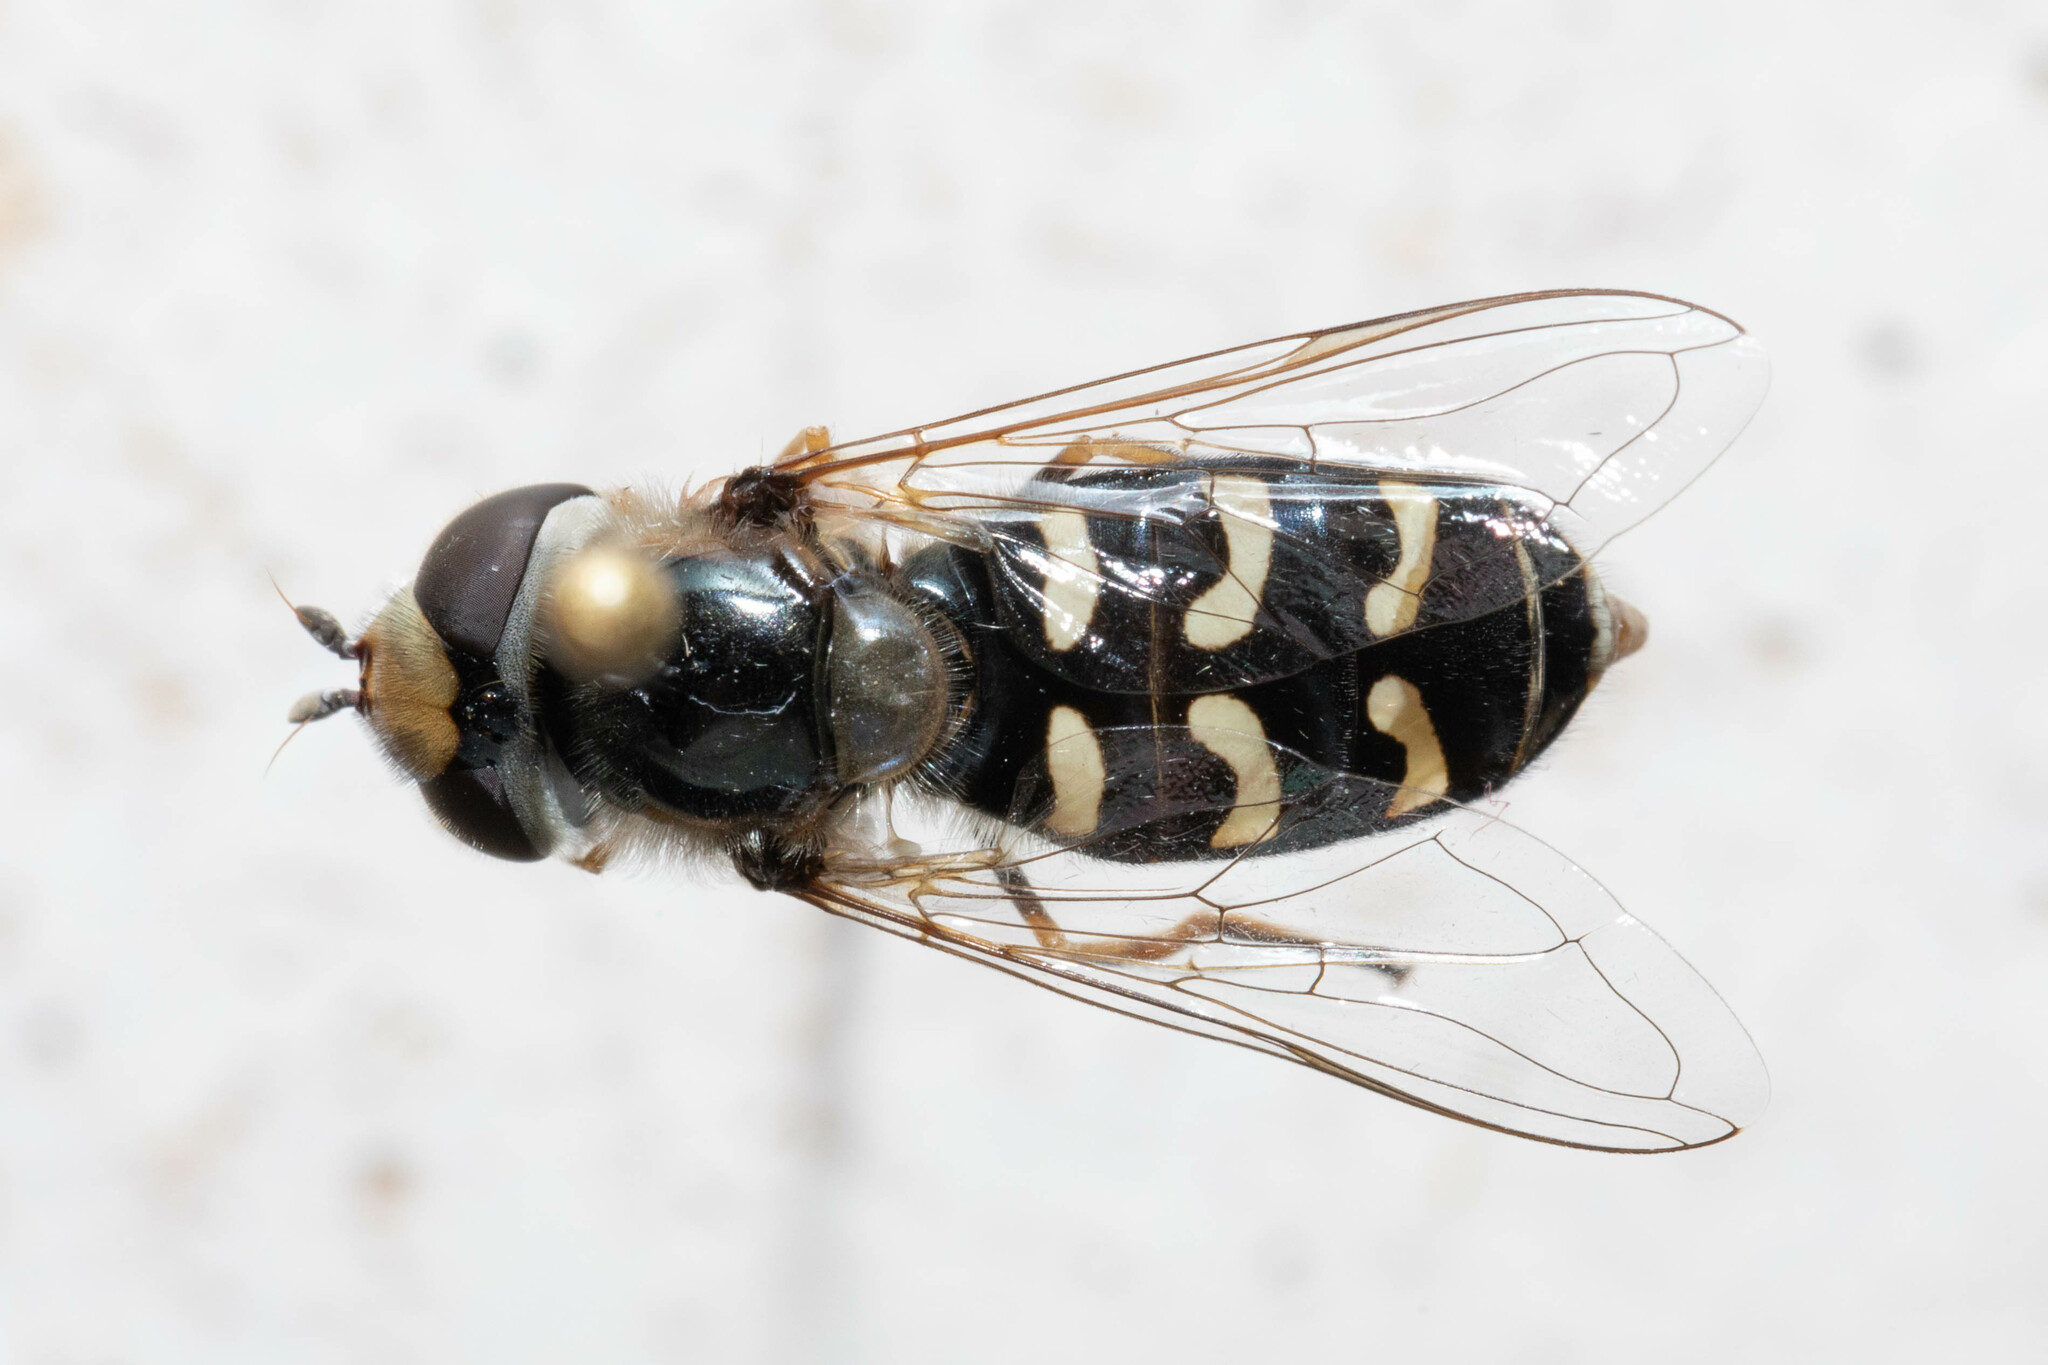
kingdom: Animalia
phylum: Arthropoda
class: Insecta
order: Diptera
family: Syrphidae
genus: Scaeva
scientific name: Scaeva affinis
